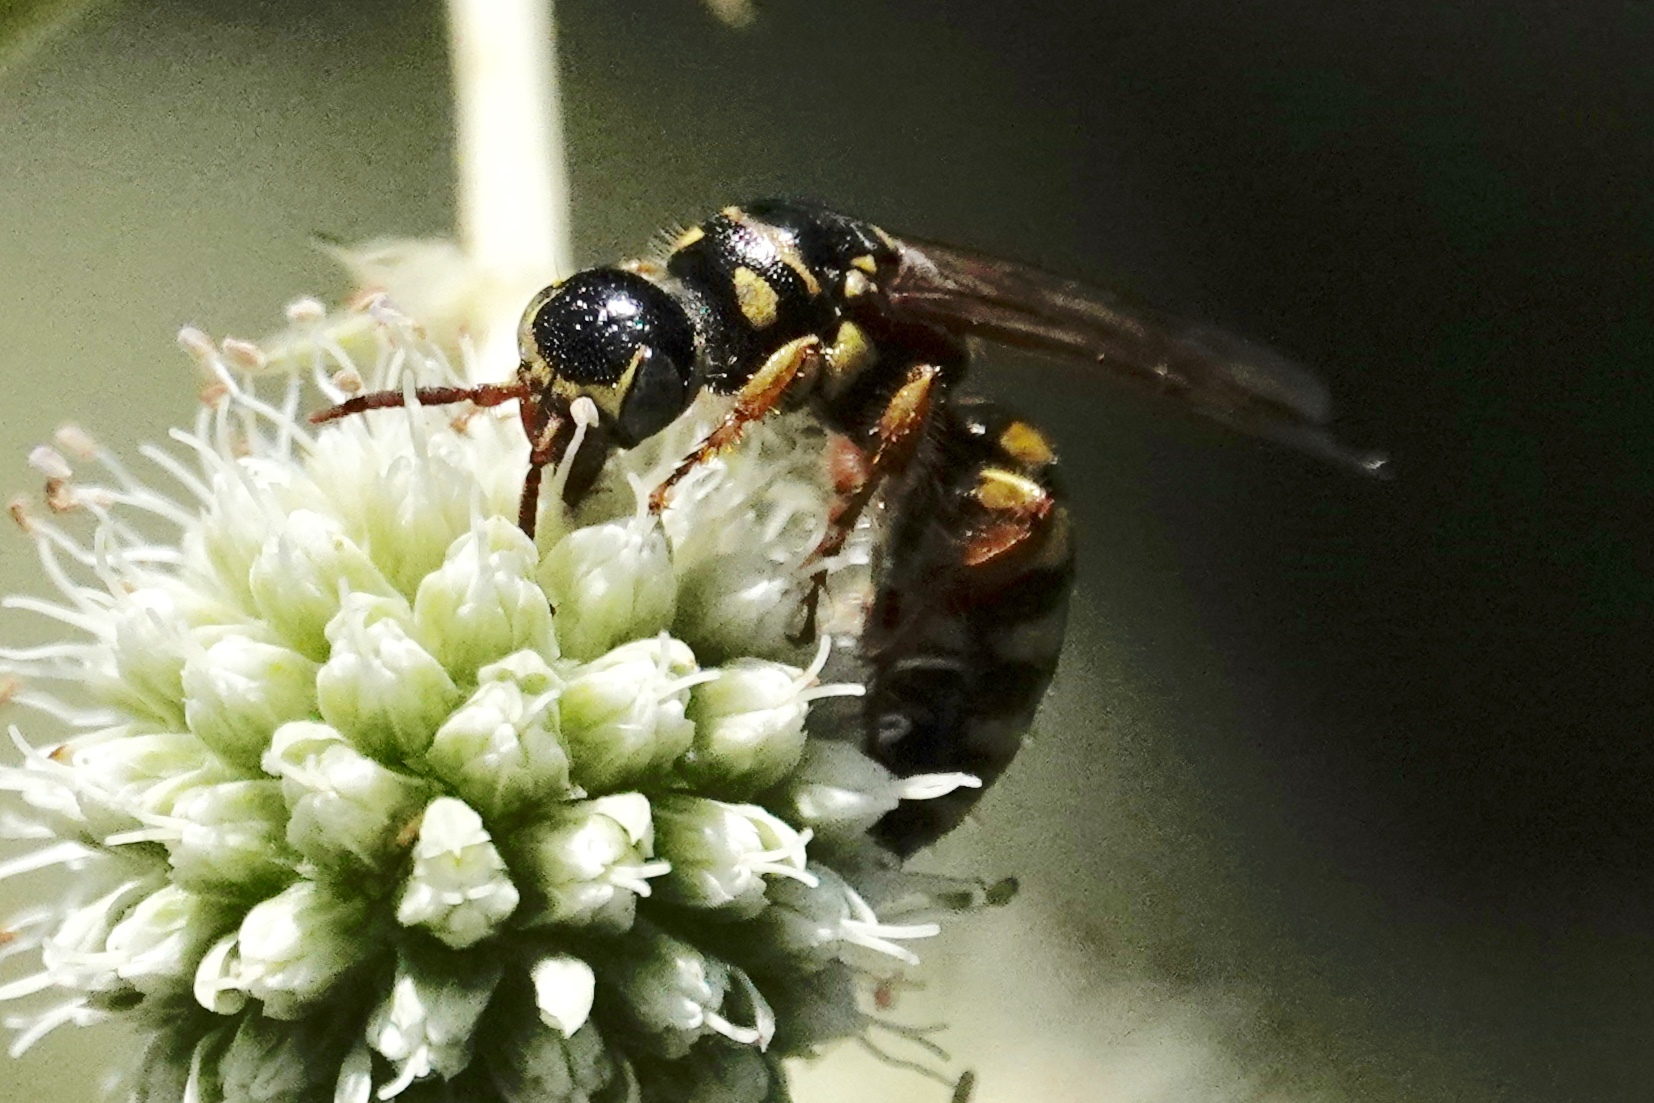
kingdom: Animalia
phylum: Arthropoda
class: Insecta
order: Hymenoptera
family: Tiphiidae
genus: Myzinum
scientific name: Myzinum quinquecinctum
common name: Five-banded thynnid wasp
